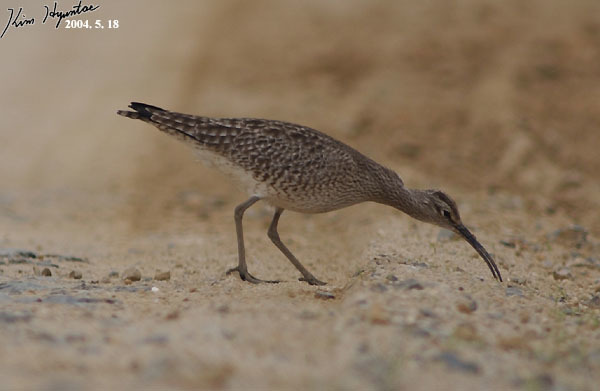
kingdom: Animalia
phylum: Chordata
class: Aves
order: Charadriiformes
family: Scolopacidae
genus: Numenius
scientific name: Numenius phaeopus
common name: Whimbrel
